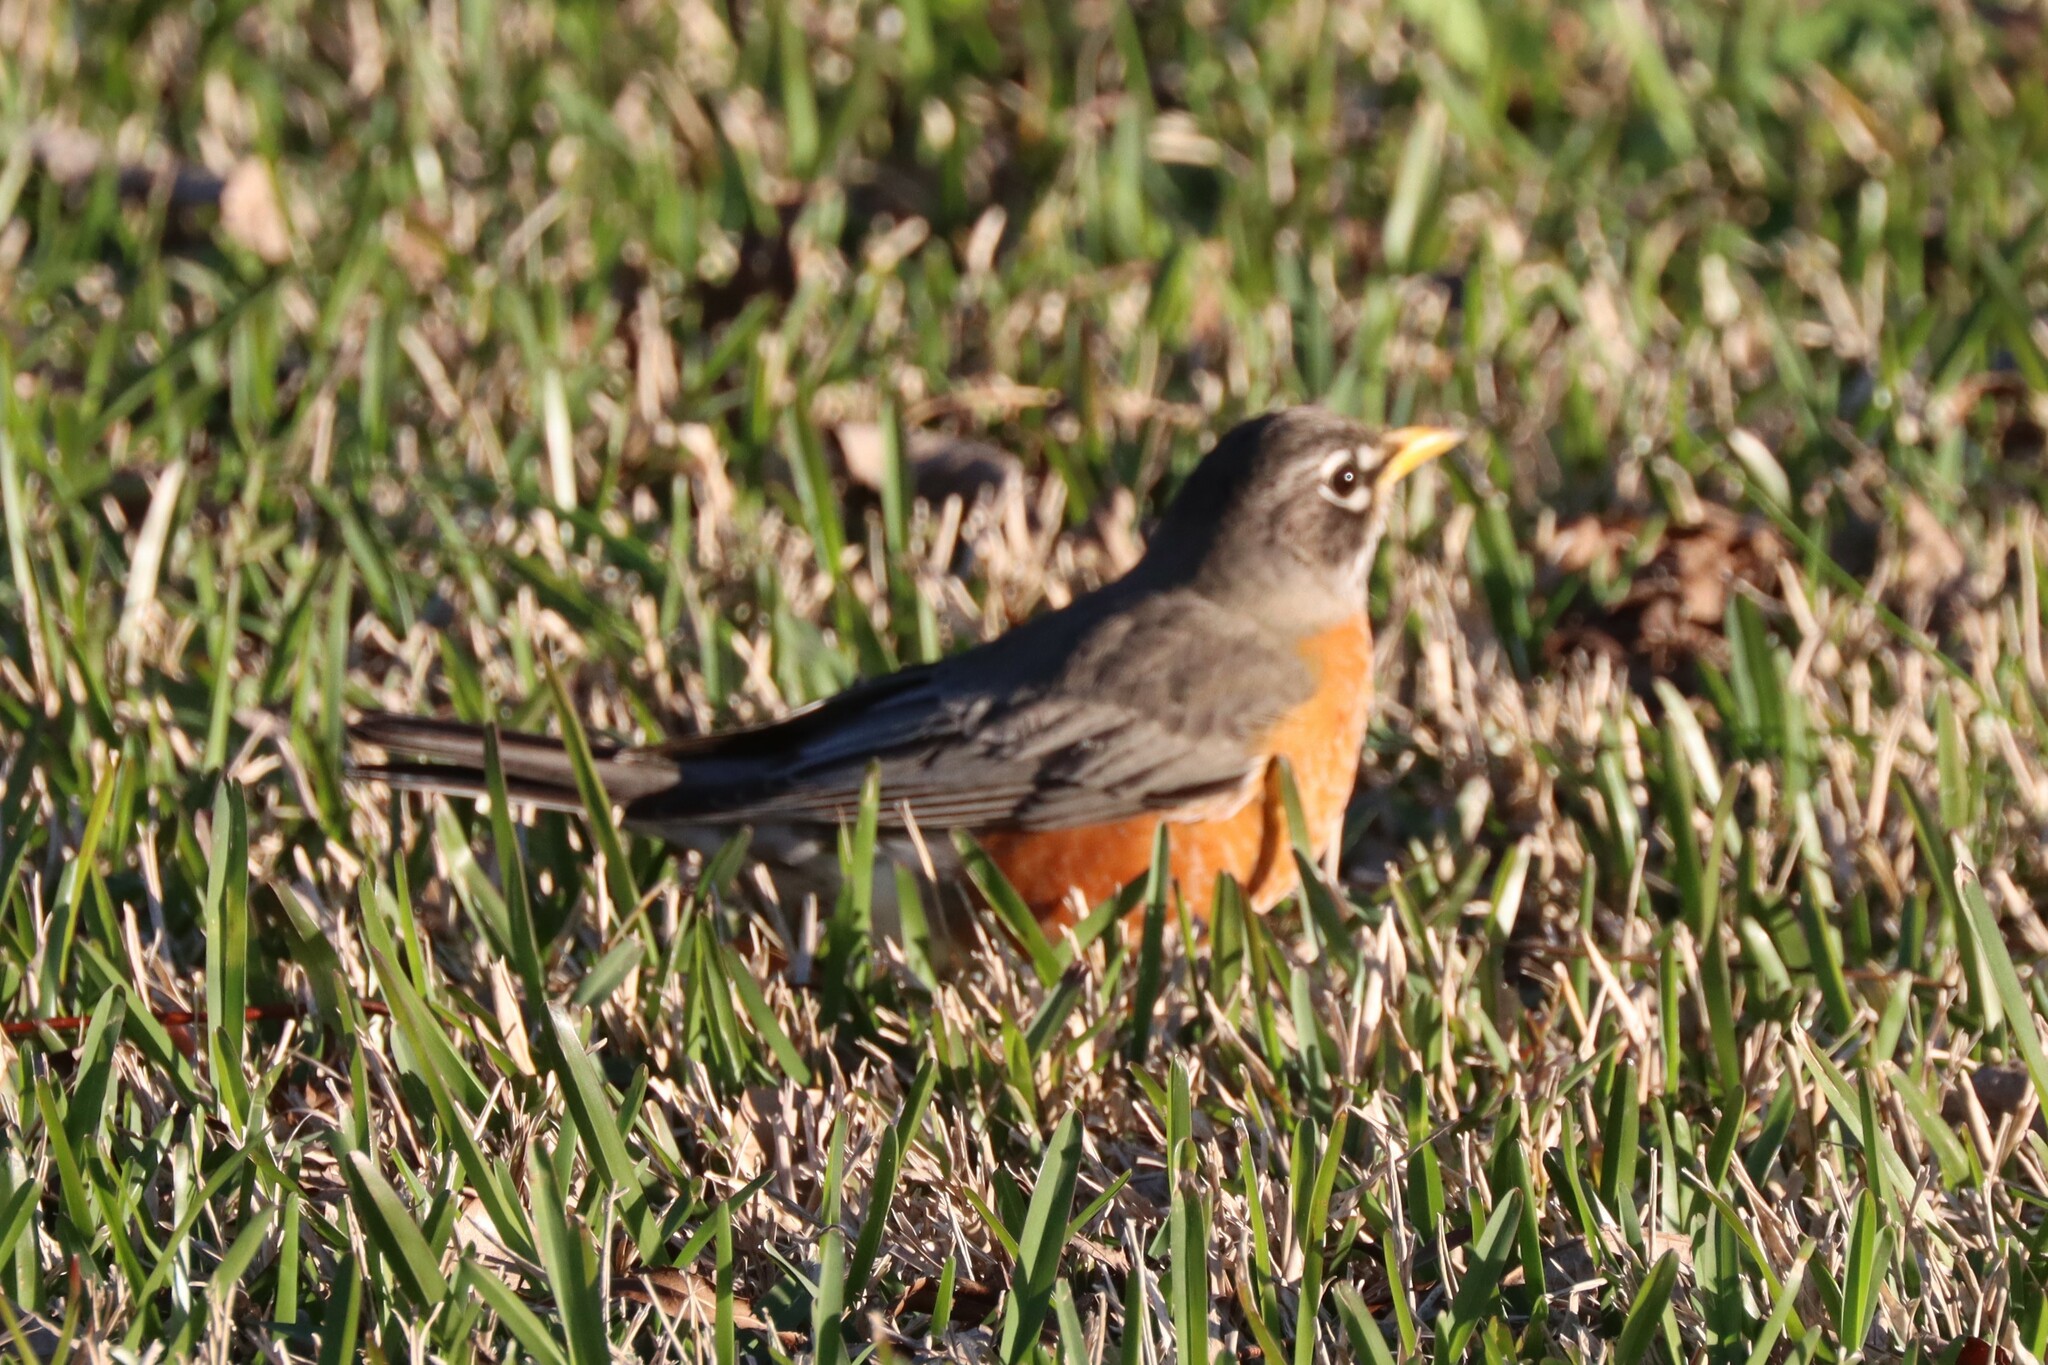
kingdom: Animalia
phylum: Chordata
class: Aves
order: Passeriformes
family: Turdidae
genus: Turdus
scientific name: Turdus migratorius
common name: American robin
